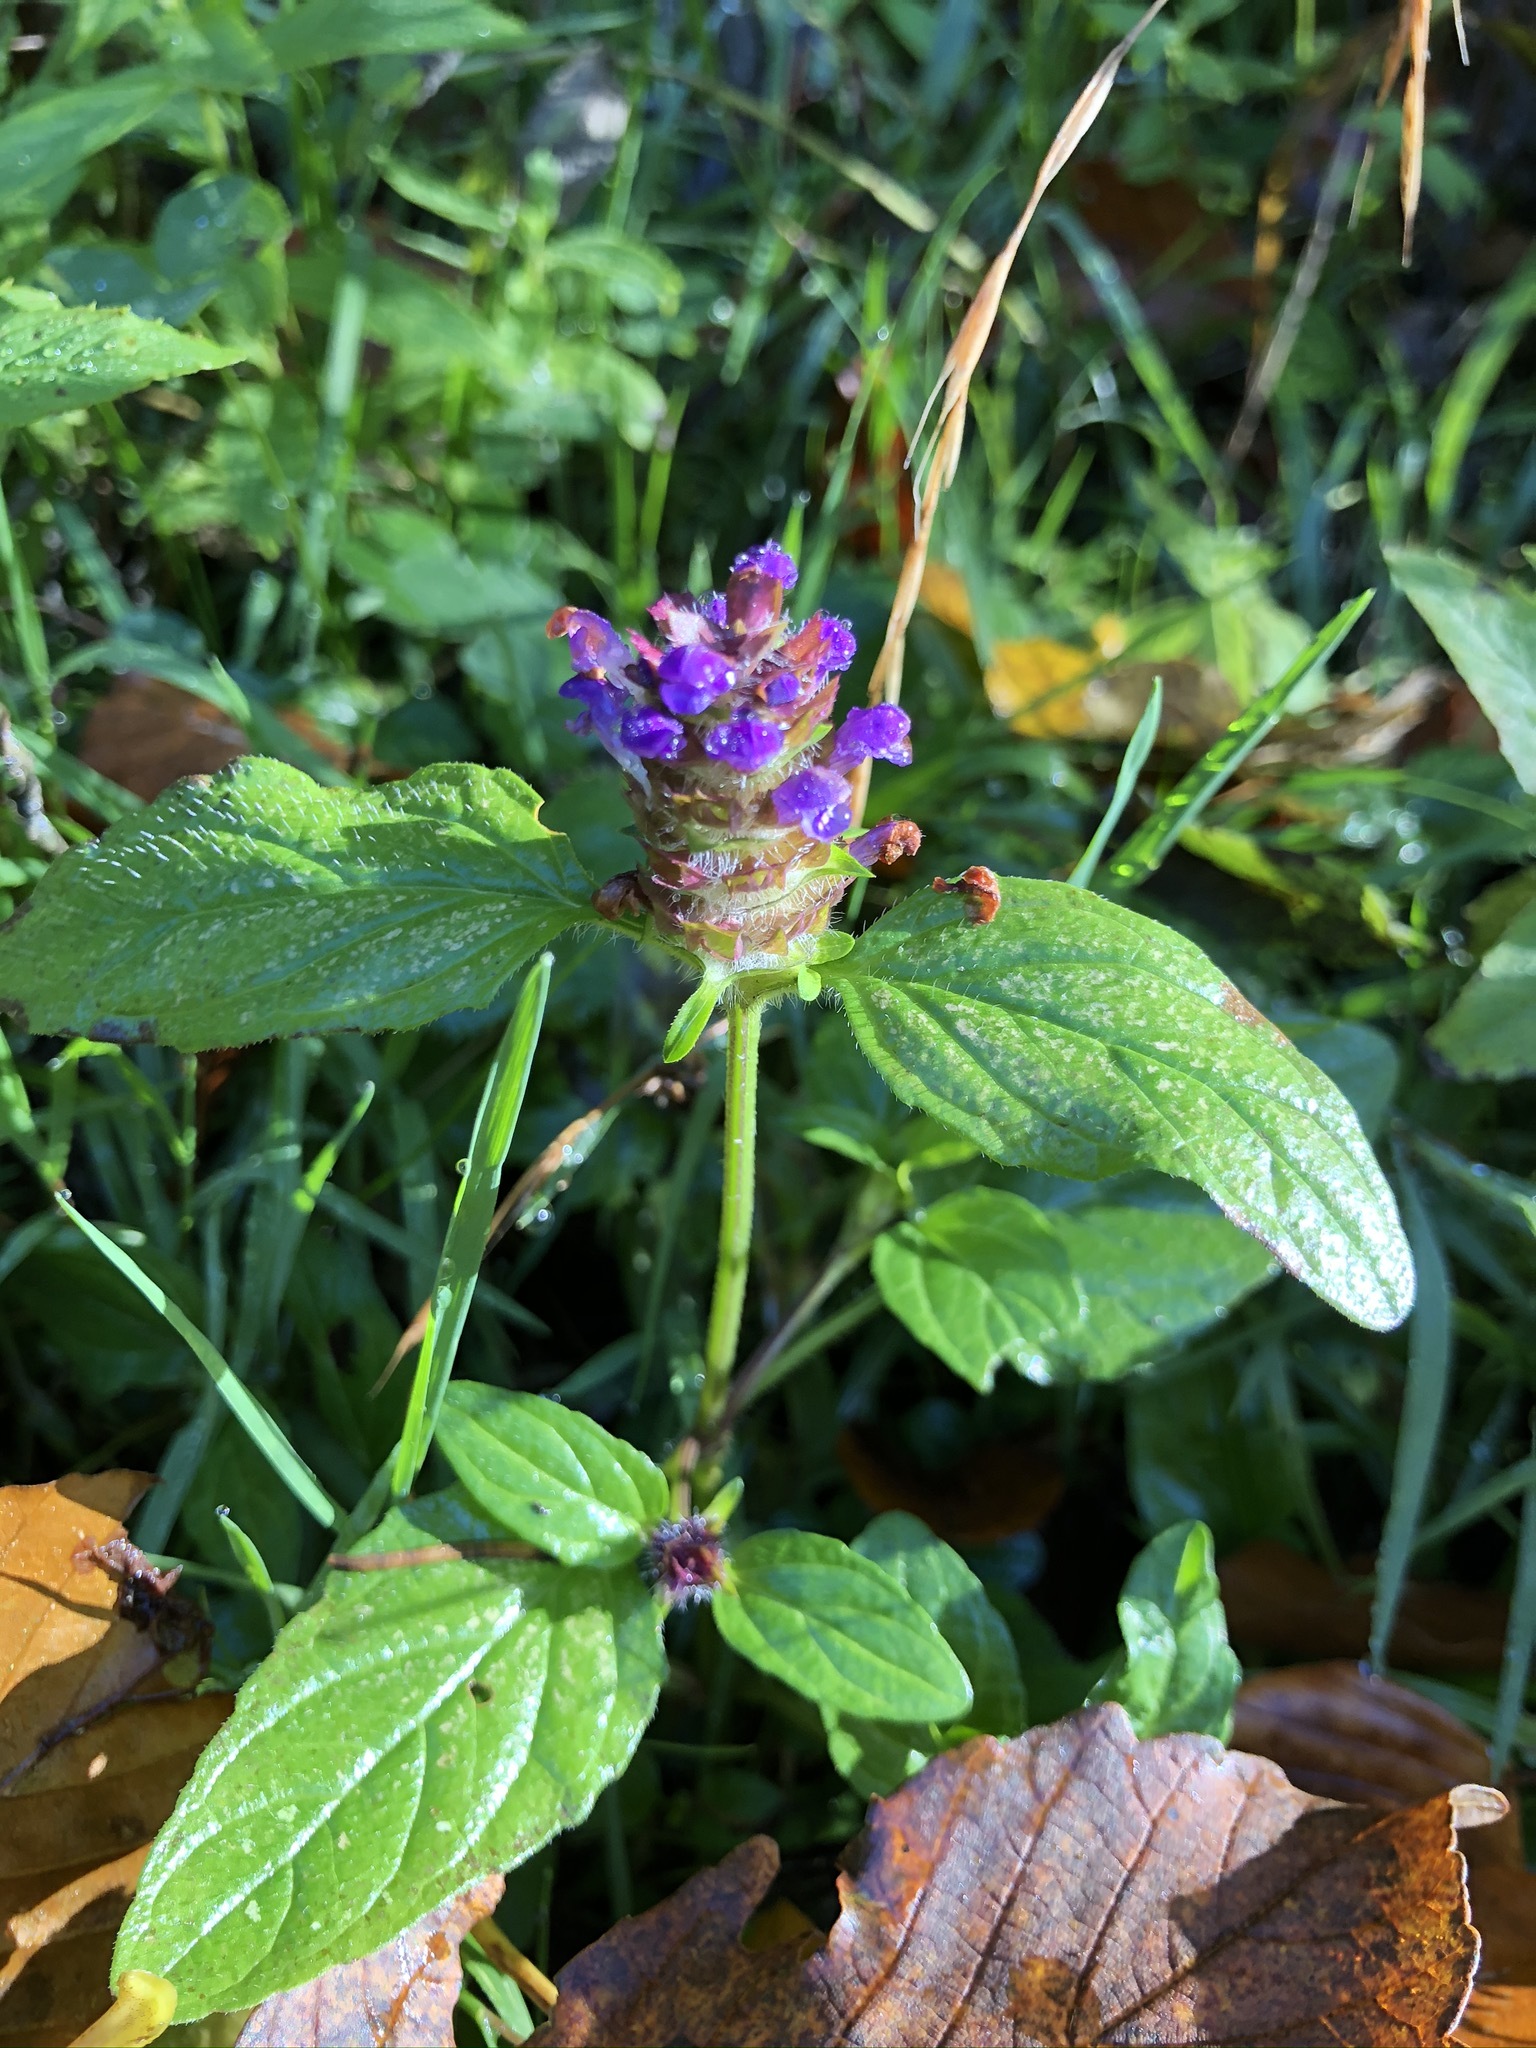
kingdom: Plantae
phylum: Tracheophyta
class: Magnoliopsida
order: Lamiales
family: Lamiaceae
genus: Prunella
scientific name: Prunella vulgaris
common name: Heal-all
